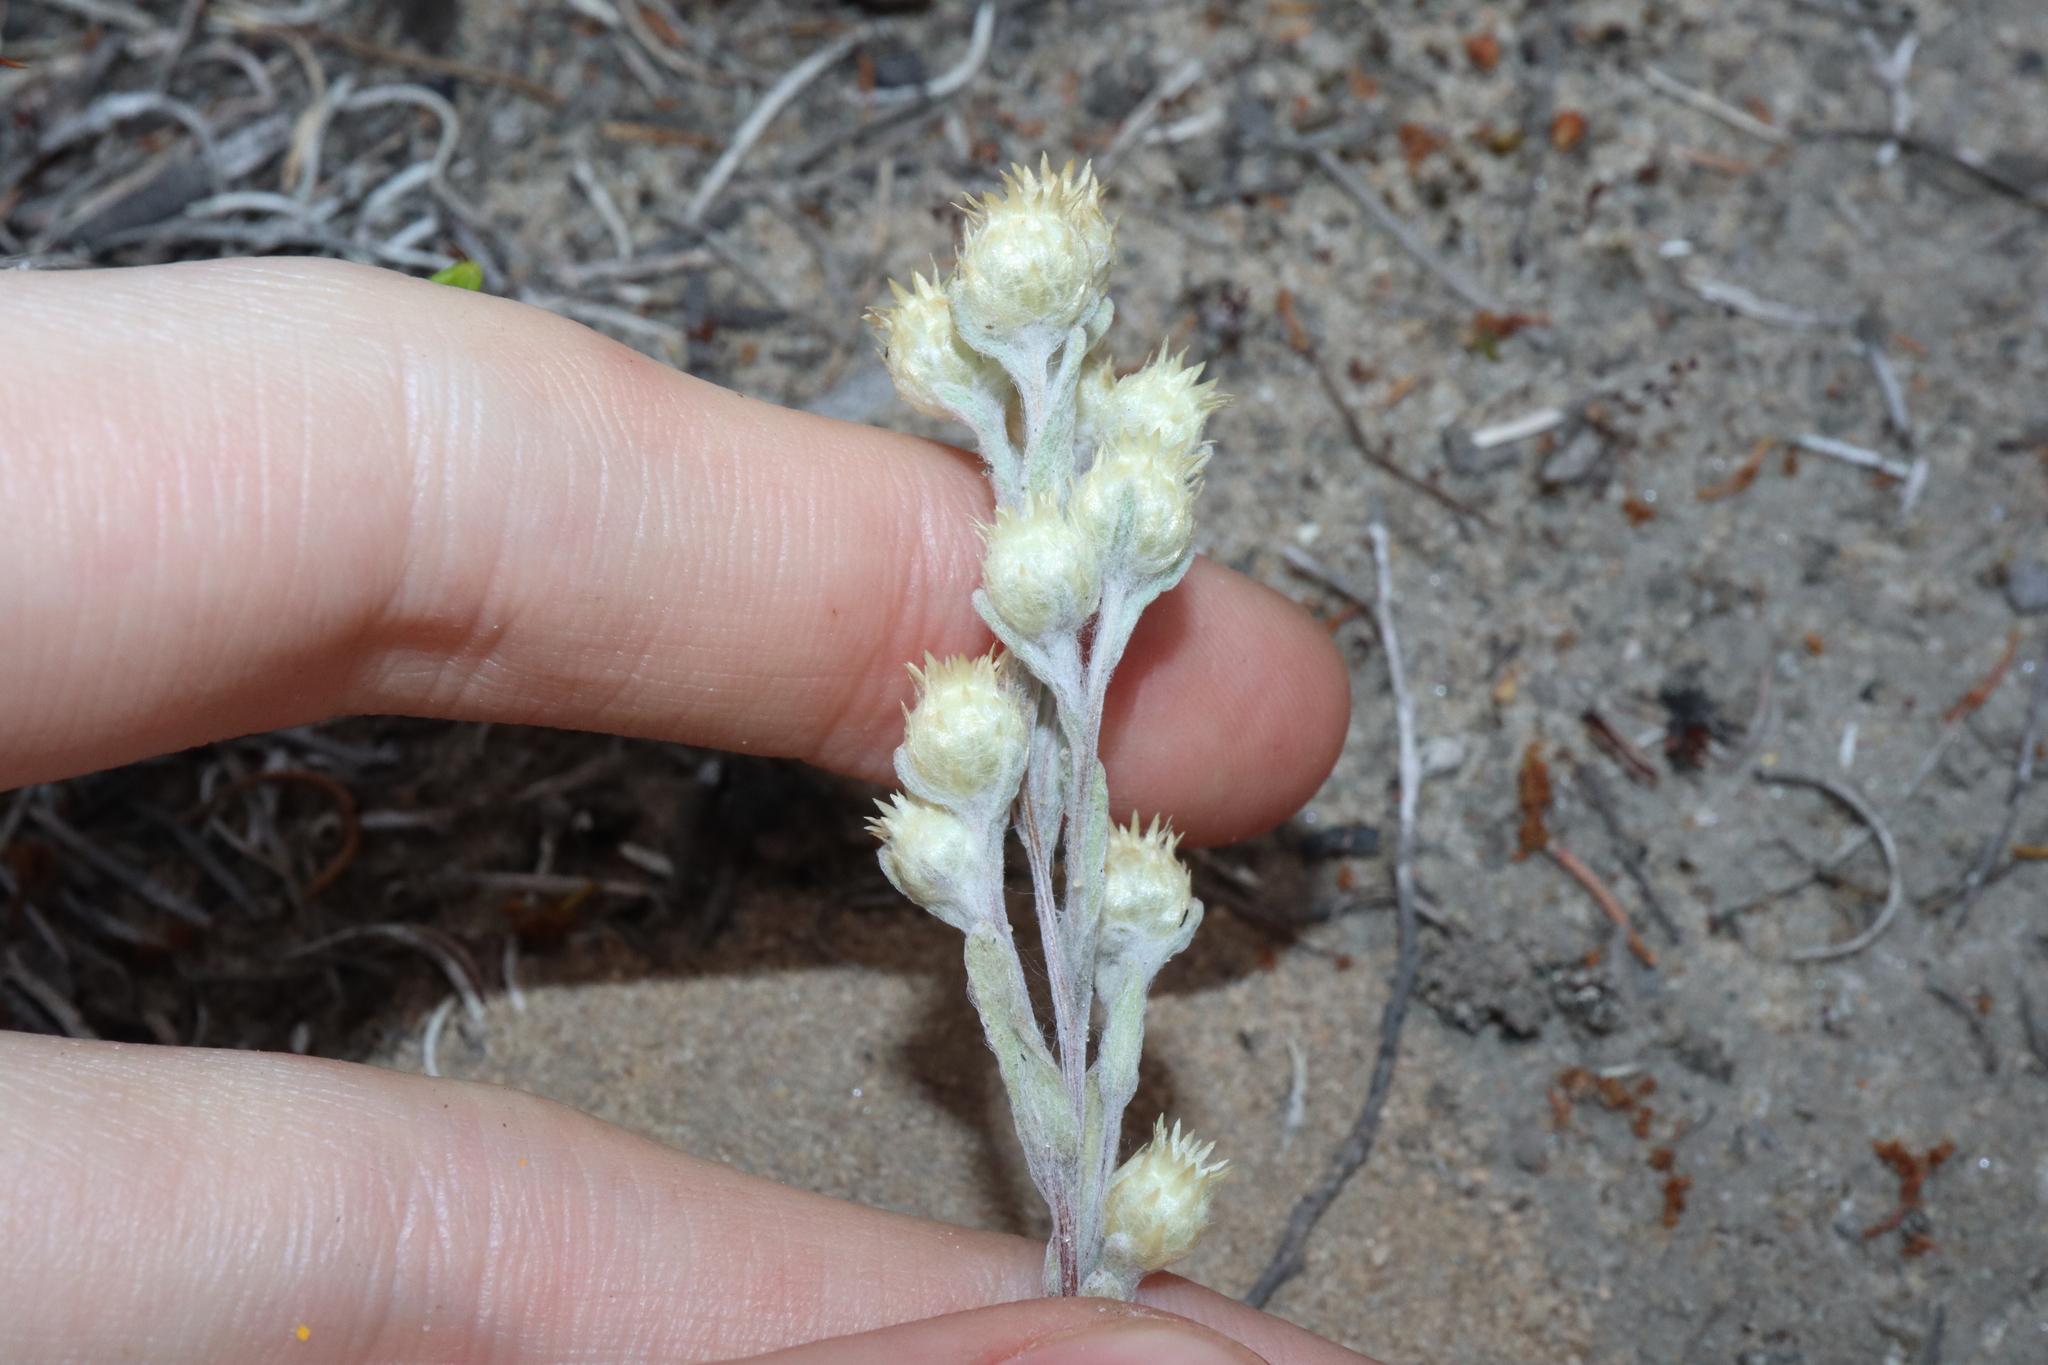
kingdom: Plantae
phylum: Tracheophyta
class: Magnoliopsida
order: Asterales
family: Asteraceae
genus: Pterochaeta
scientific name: Pterochaeta paniculata
